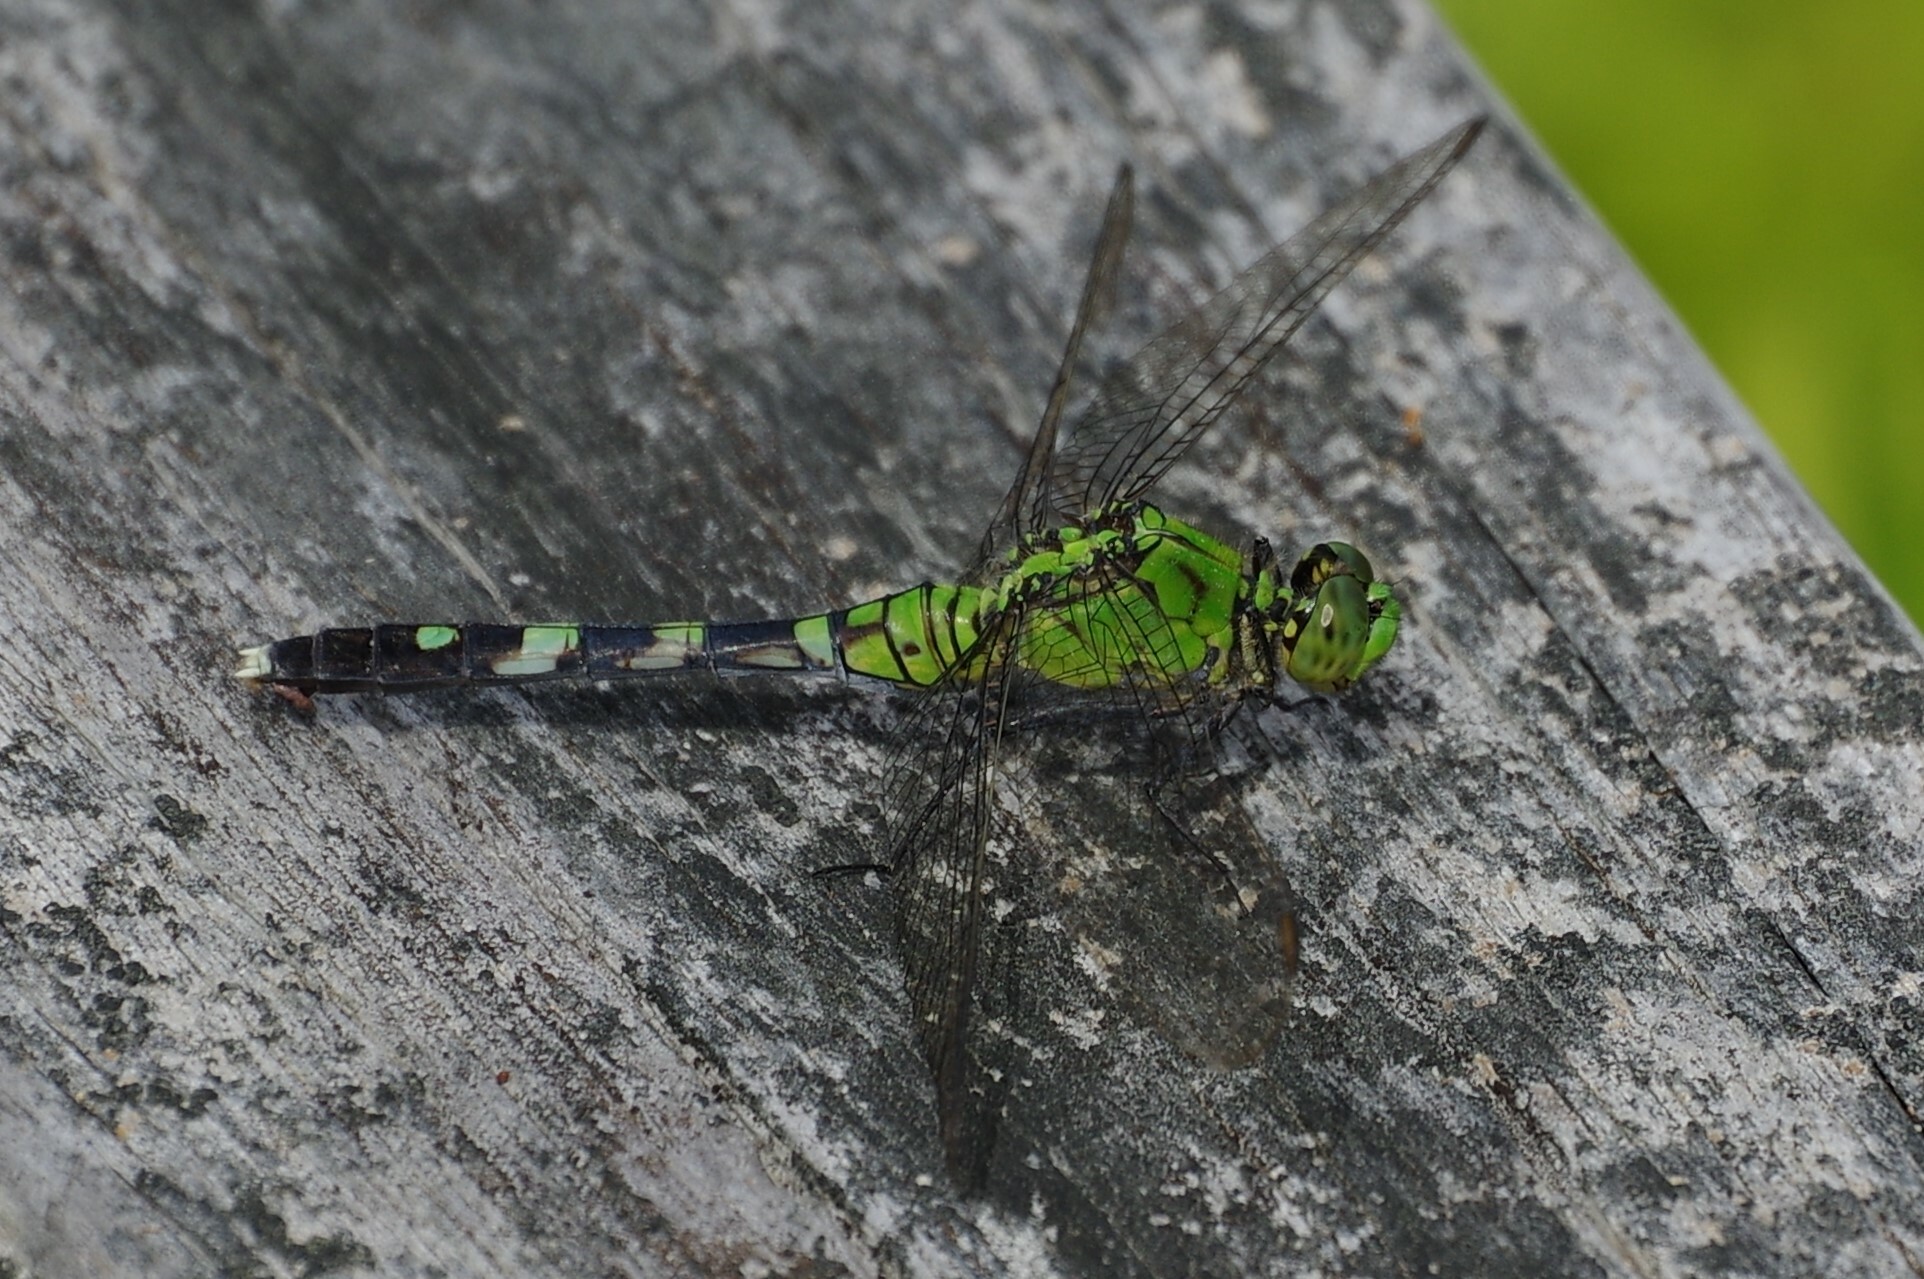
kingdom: Animalia
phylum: Arthropoda
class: Insecta
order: Odonata
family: Libellulidae
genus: Erythemis
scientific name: Erythemis simplicicollis
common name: Eastern pondhawk
